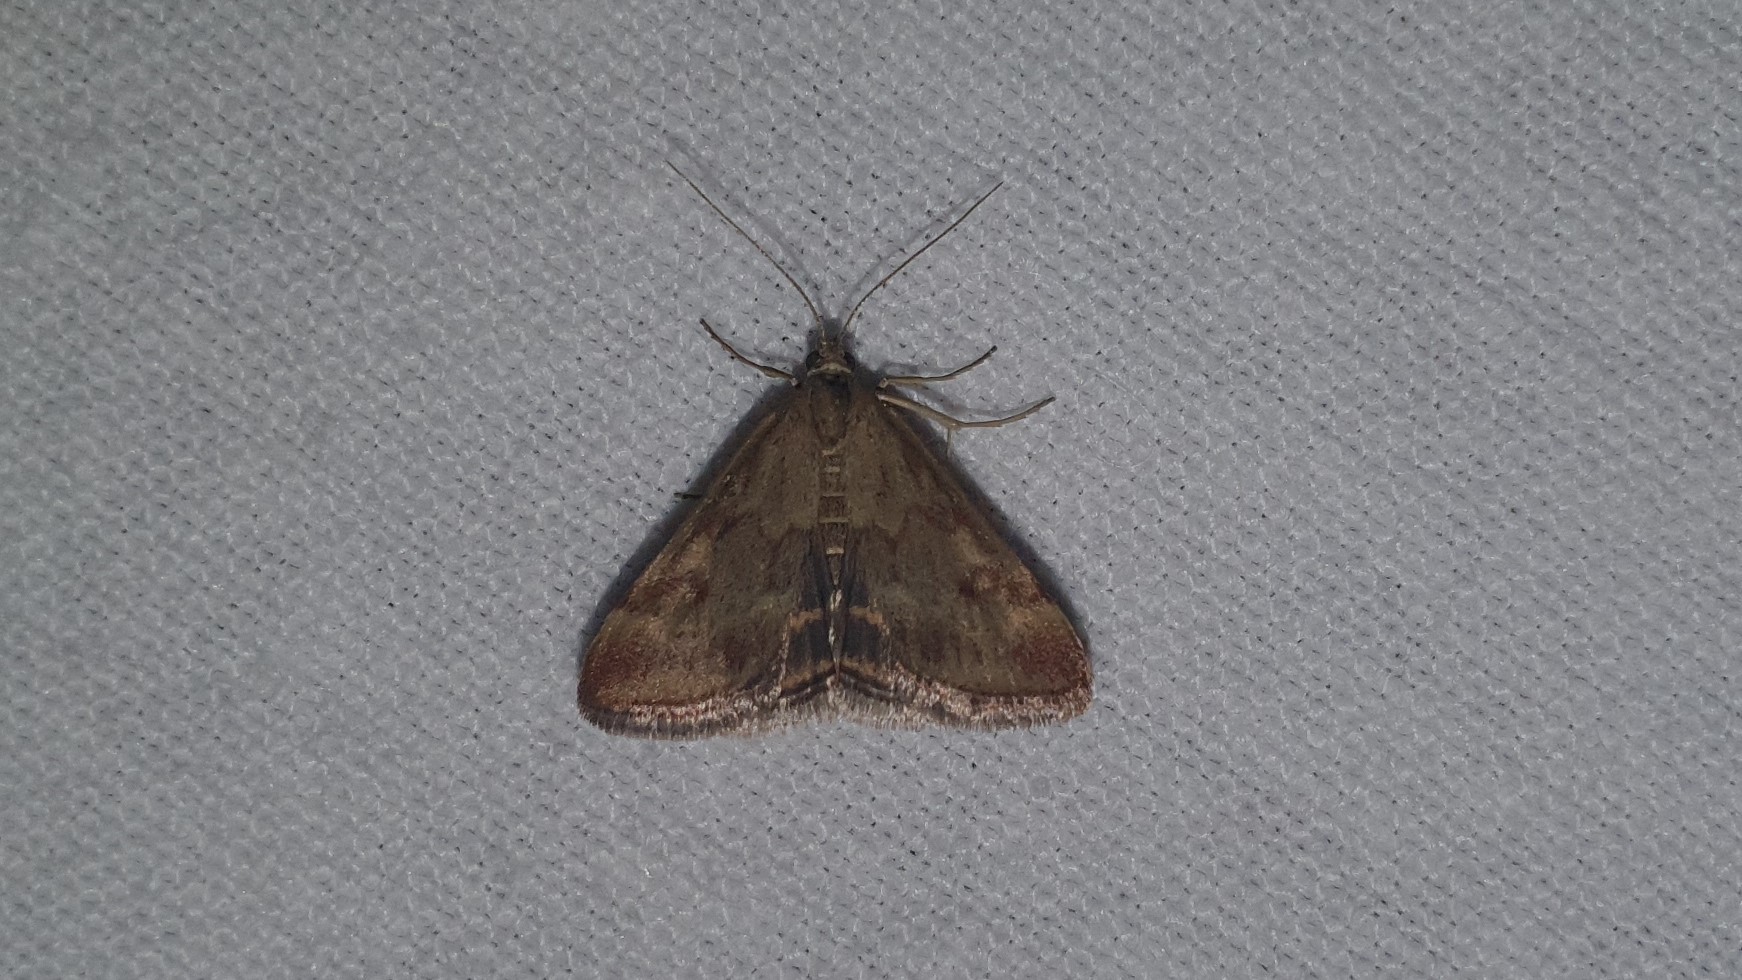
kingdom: Animalia
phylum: Arthropoda
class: Insecta
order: Lepidoptera
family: Crambidae
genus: Pyrausta
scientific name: Pyrausta despicata
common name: Straw-barred pearl
